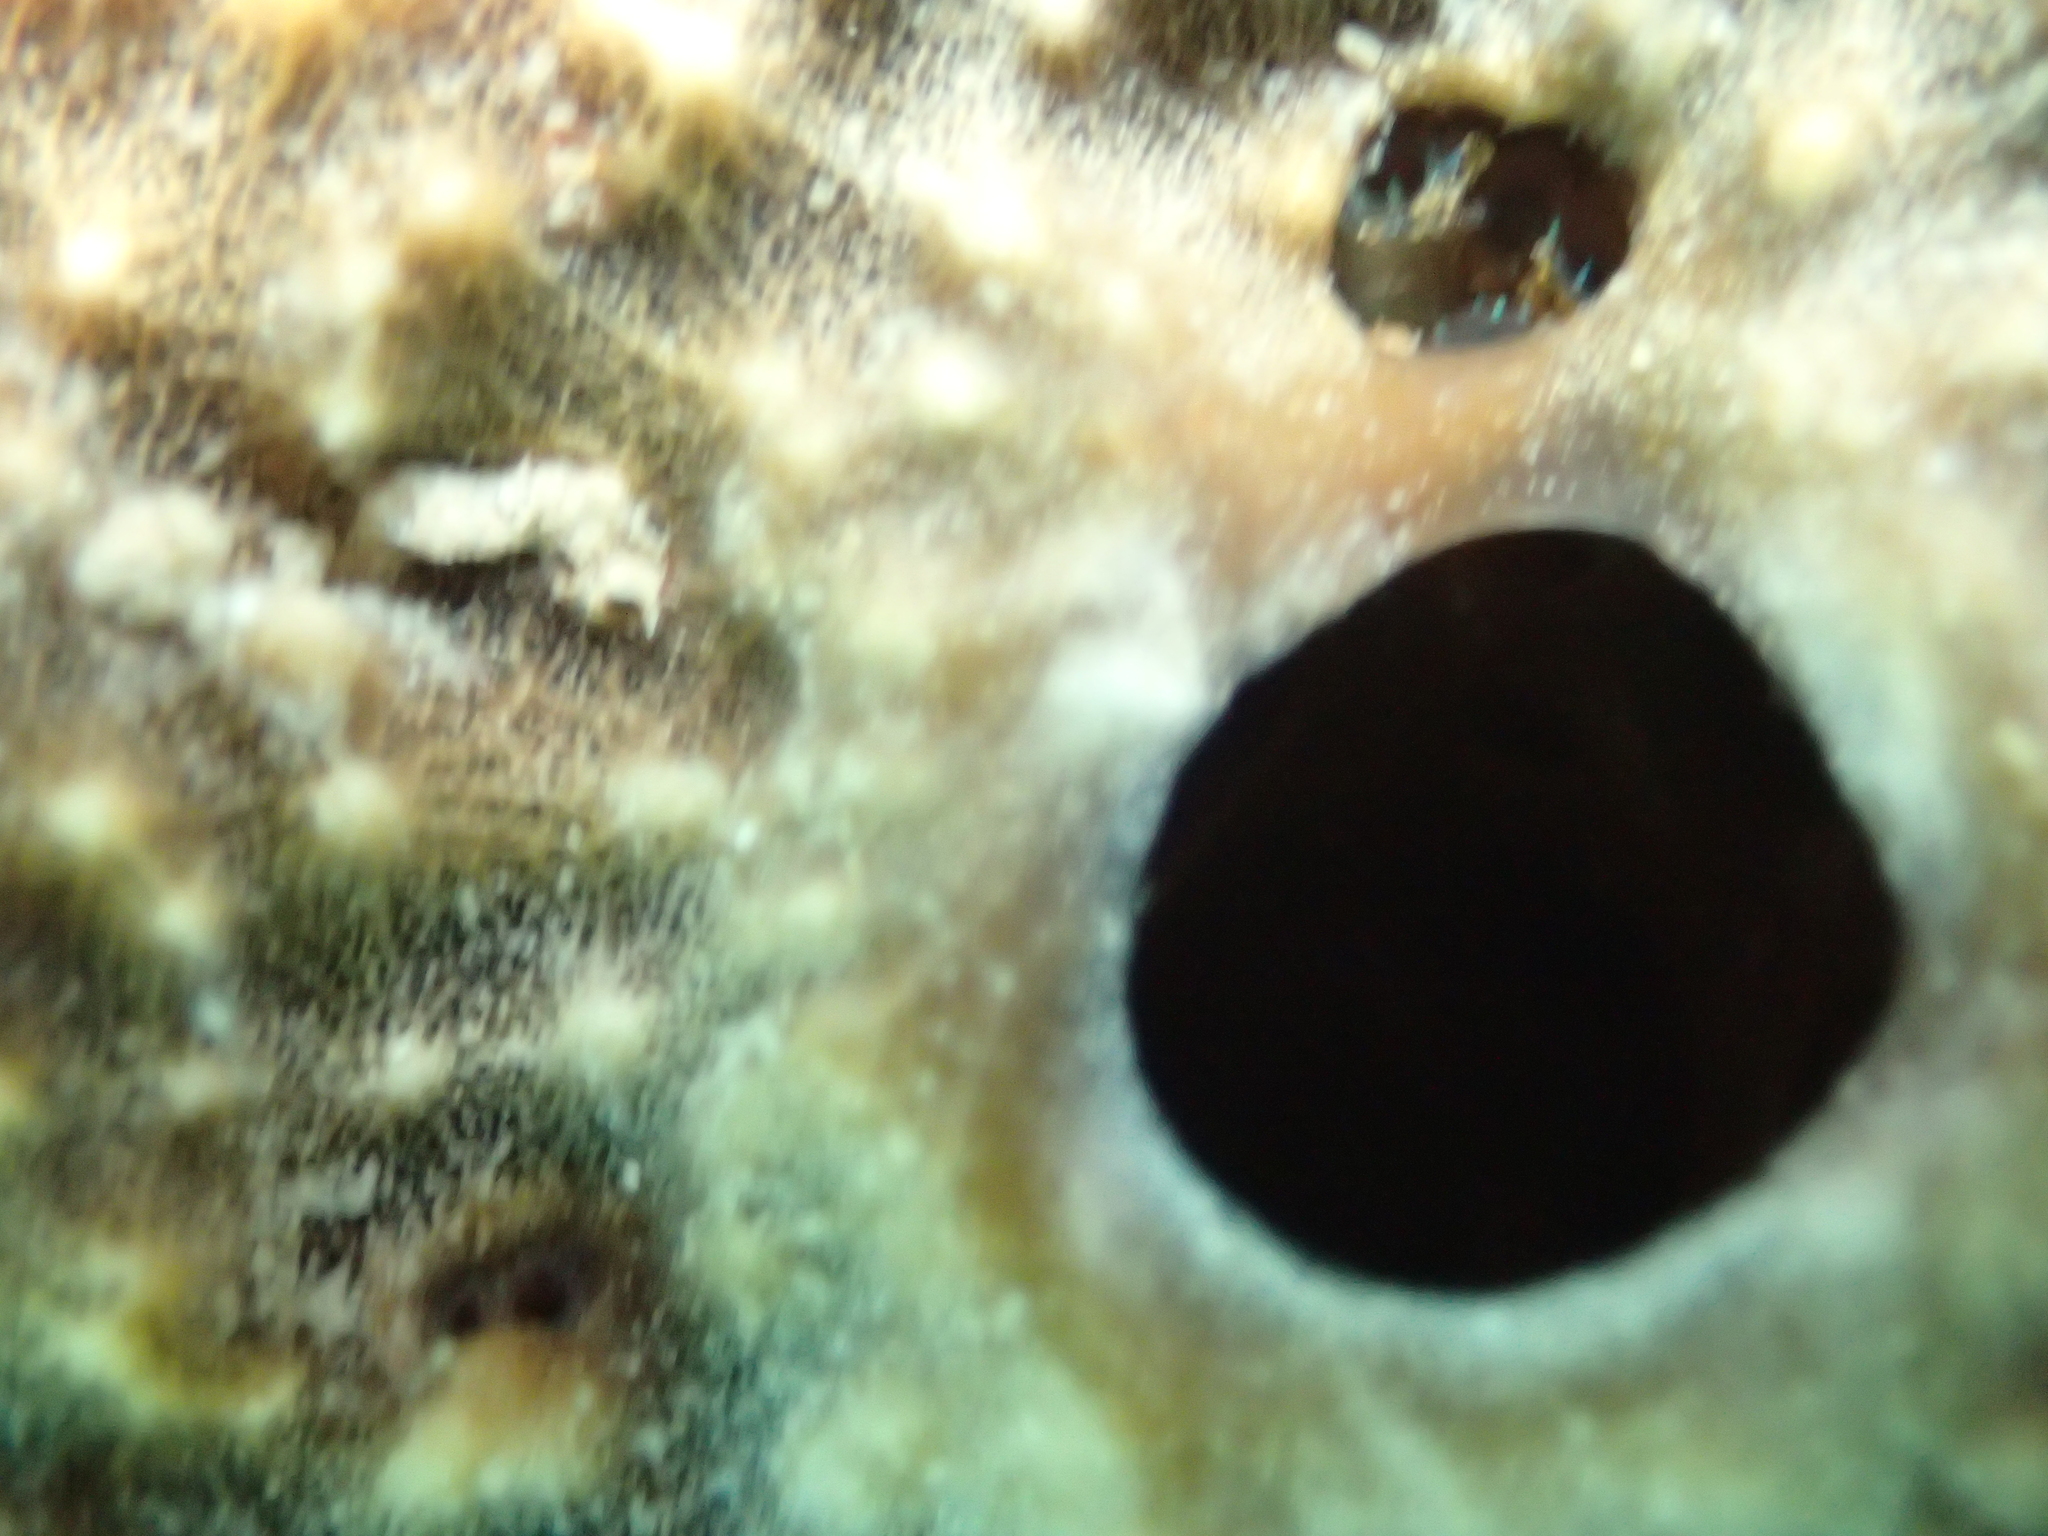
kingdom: Animalia
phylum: Porifera
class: Demospongiae
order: Dictyoceratida
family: Irciniidae
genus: Ircinia
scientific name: Ircinia variabilis
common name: Variable loggerhead sponge
